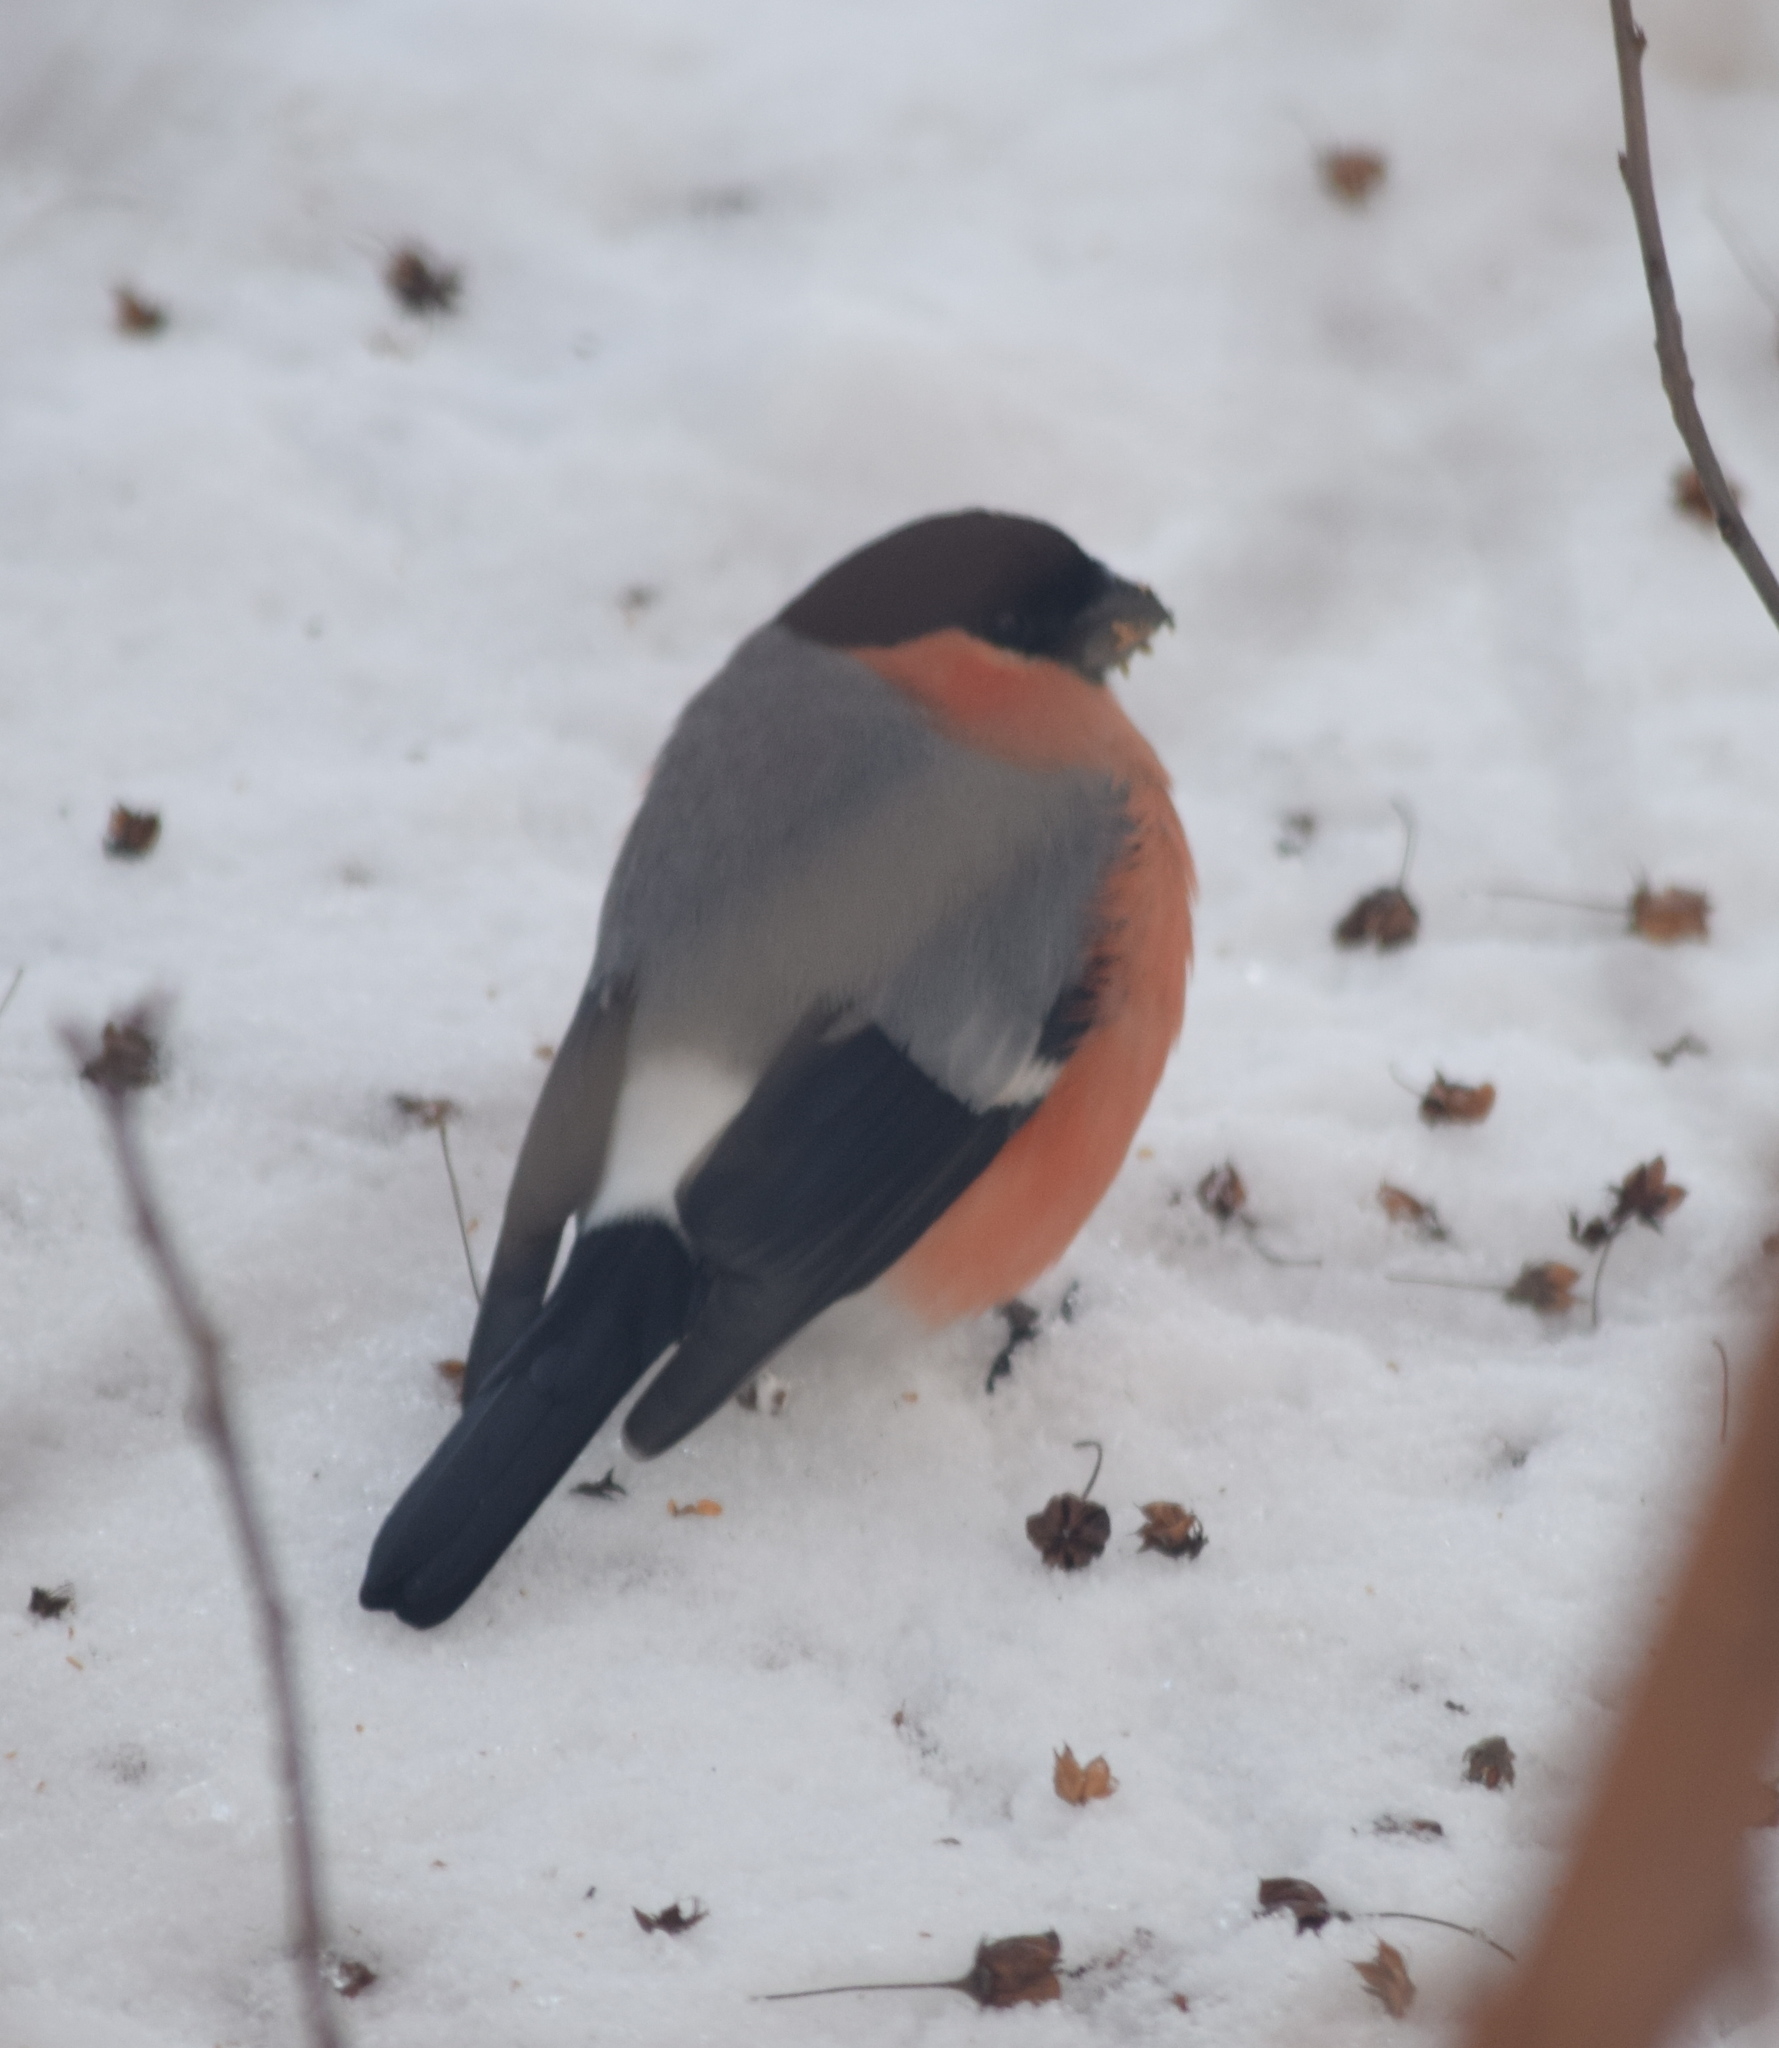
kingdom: Animalia
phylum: Chordata
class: Aves
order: Passeriformes
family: Fringillidae
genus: Pyrrhula
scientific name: Pyrrhula pyrrhula
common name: Eurasian bullfinch
